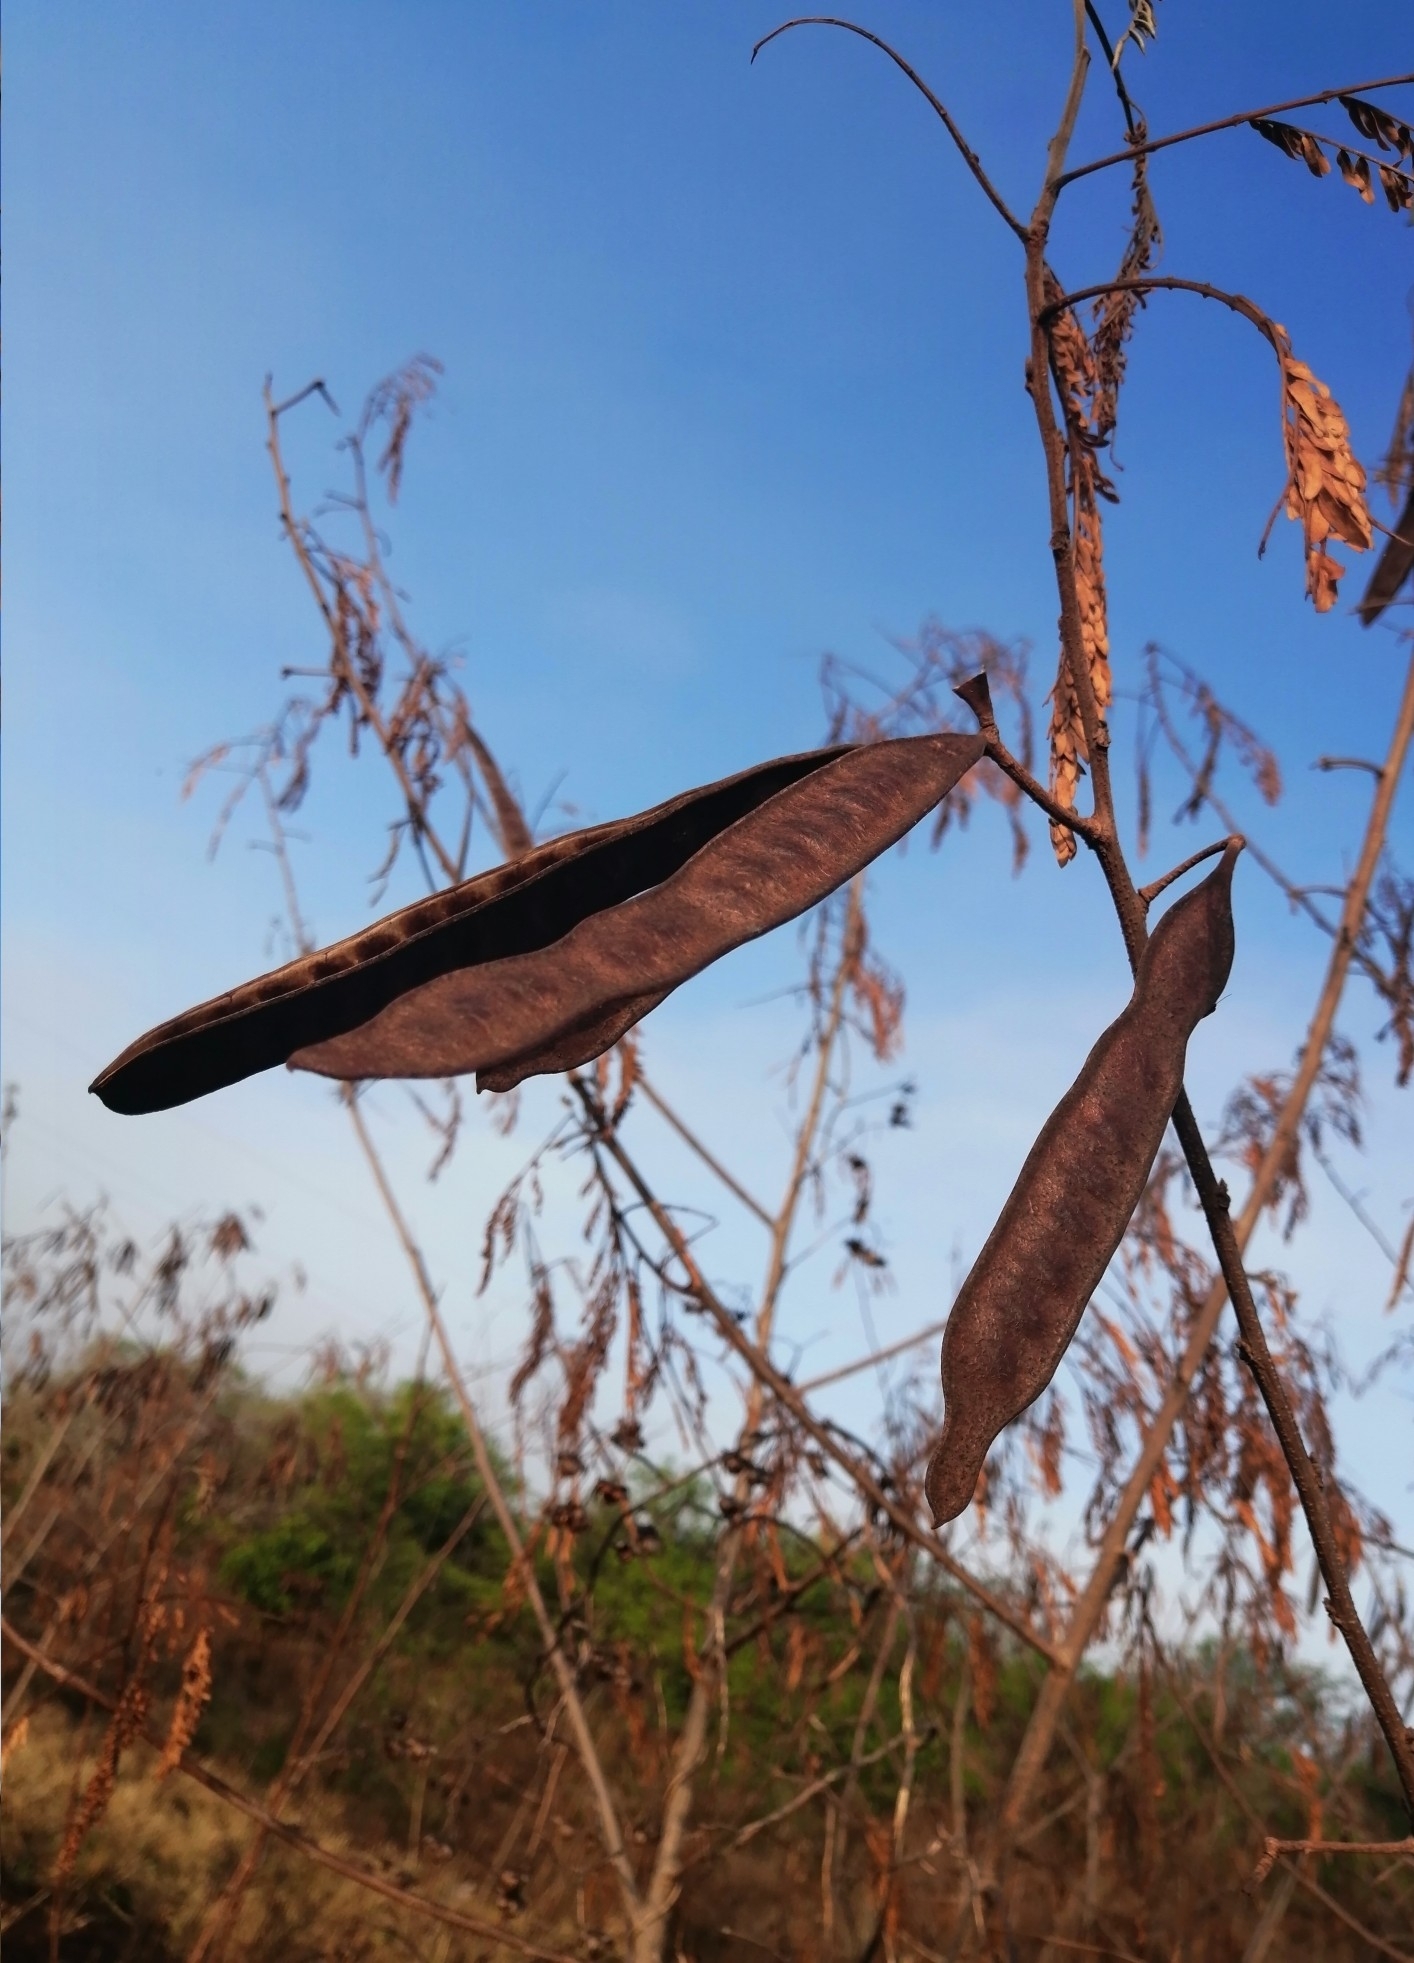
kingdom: Plantae
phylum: Tracheophyta
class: Magnoliopsida
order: Fabales
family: Fabaceae
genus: Leucaena
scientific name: Leucaena leucocephala
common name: White leadtree
